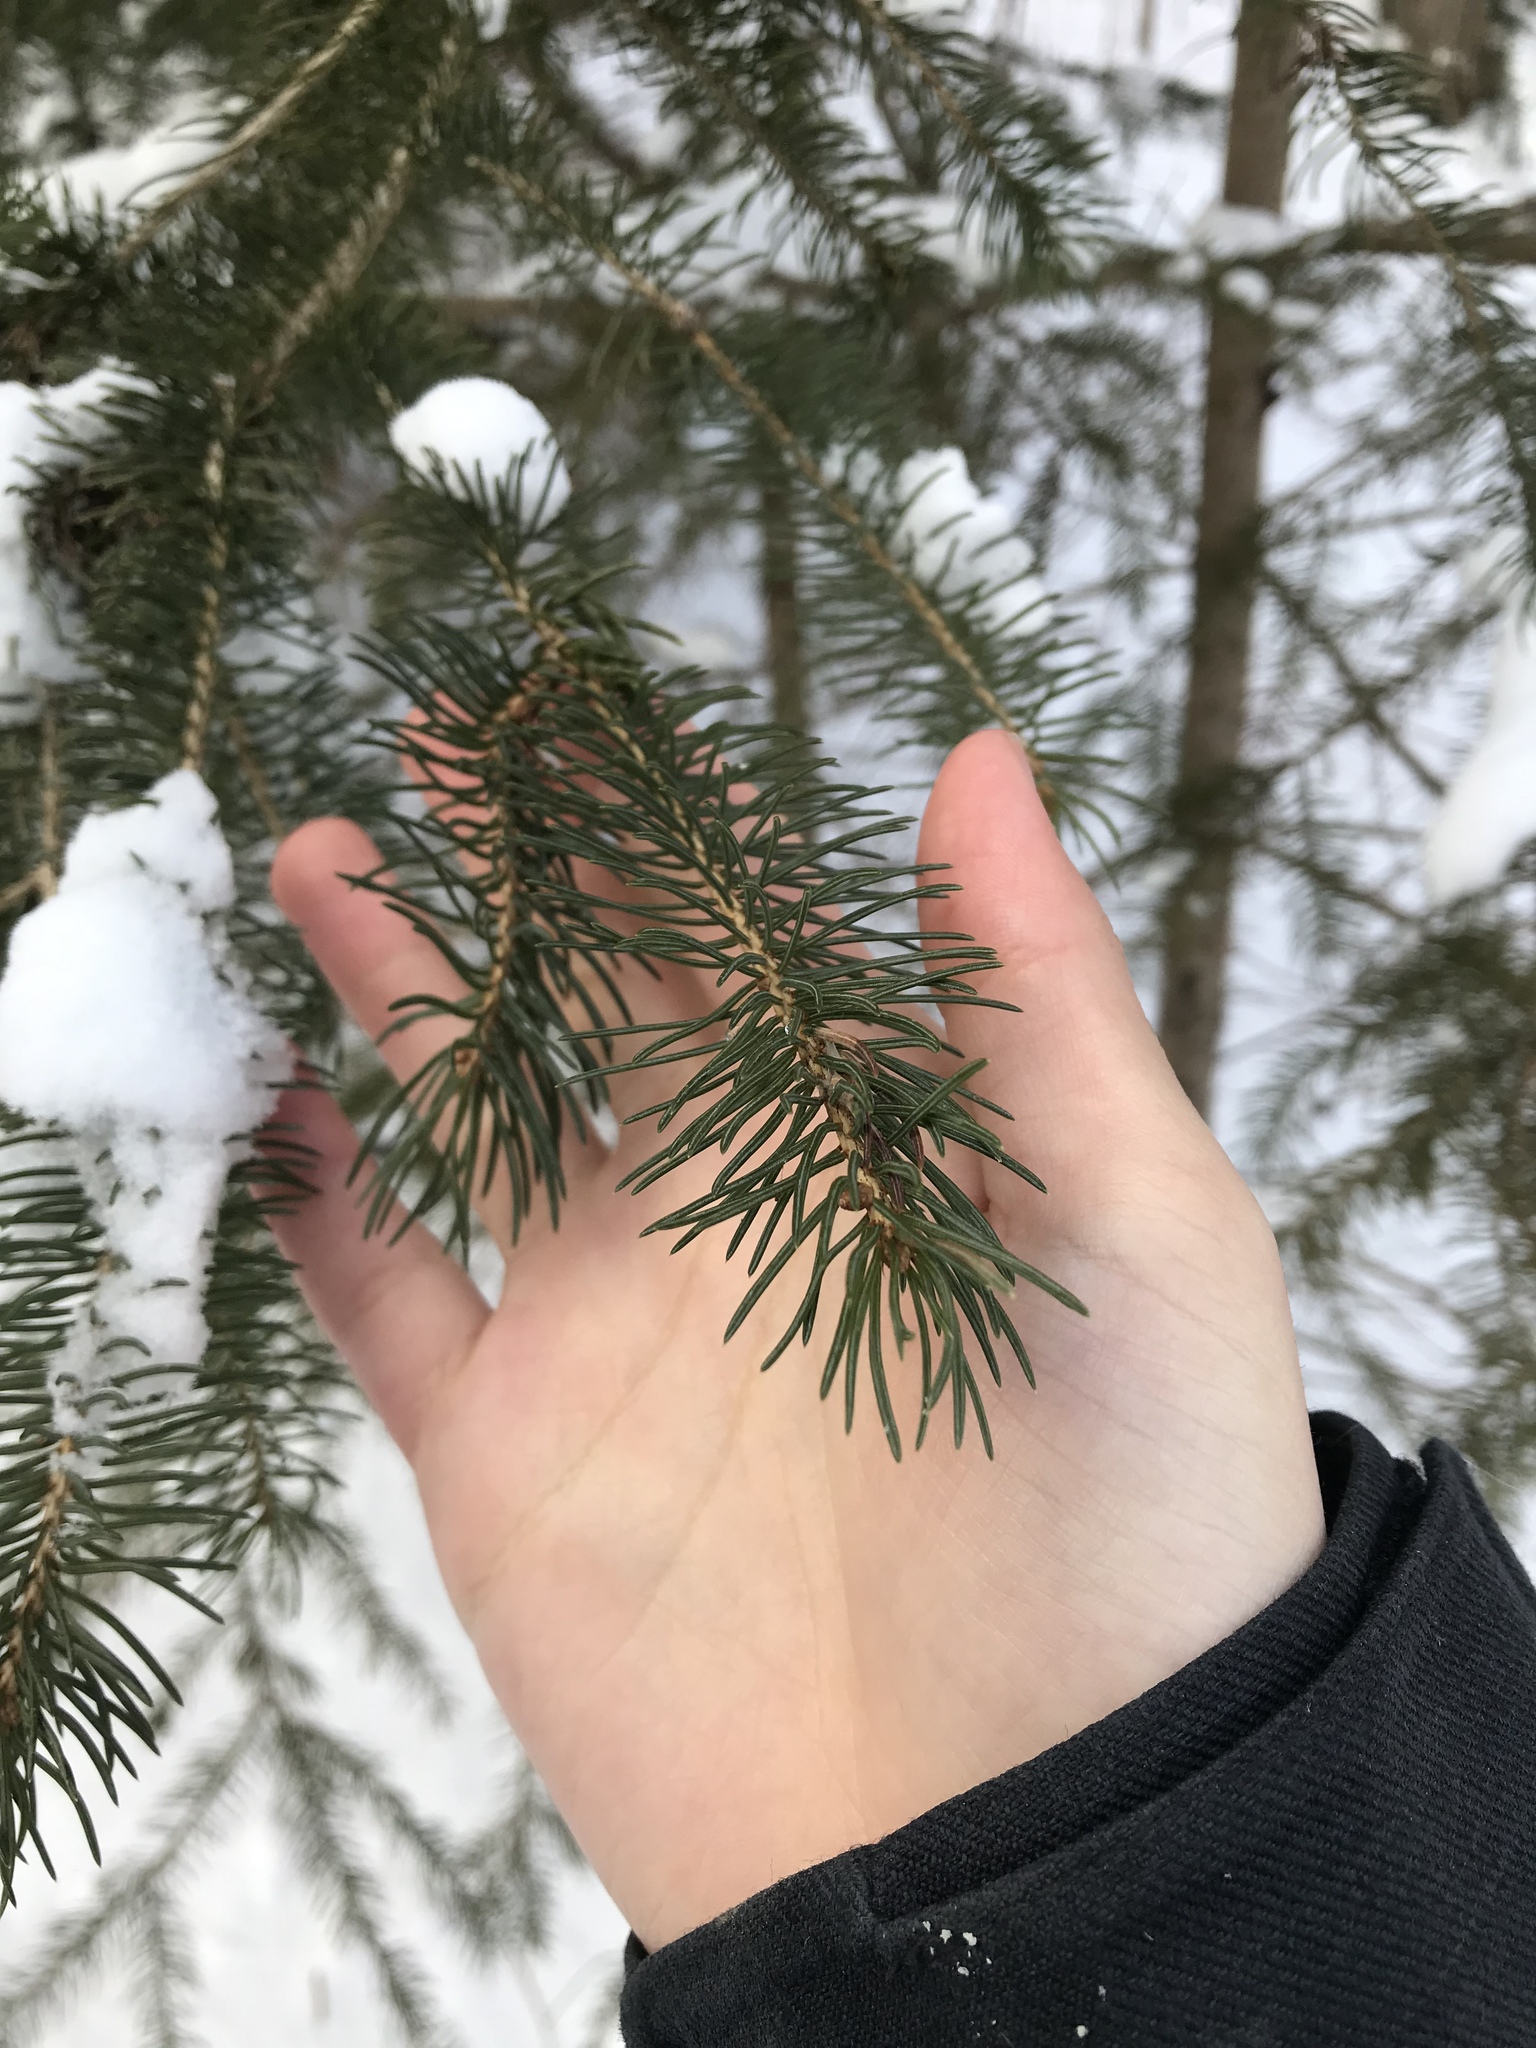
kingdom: Plantae
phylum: Tracheophyta
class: Pinopsida
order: Pinales
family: Pinaceae
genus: Picea
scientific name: Picea glauca
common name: White spruce
